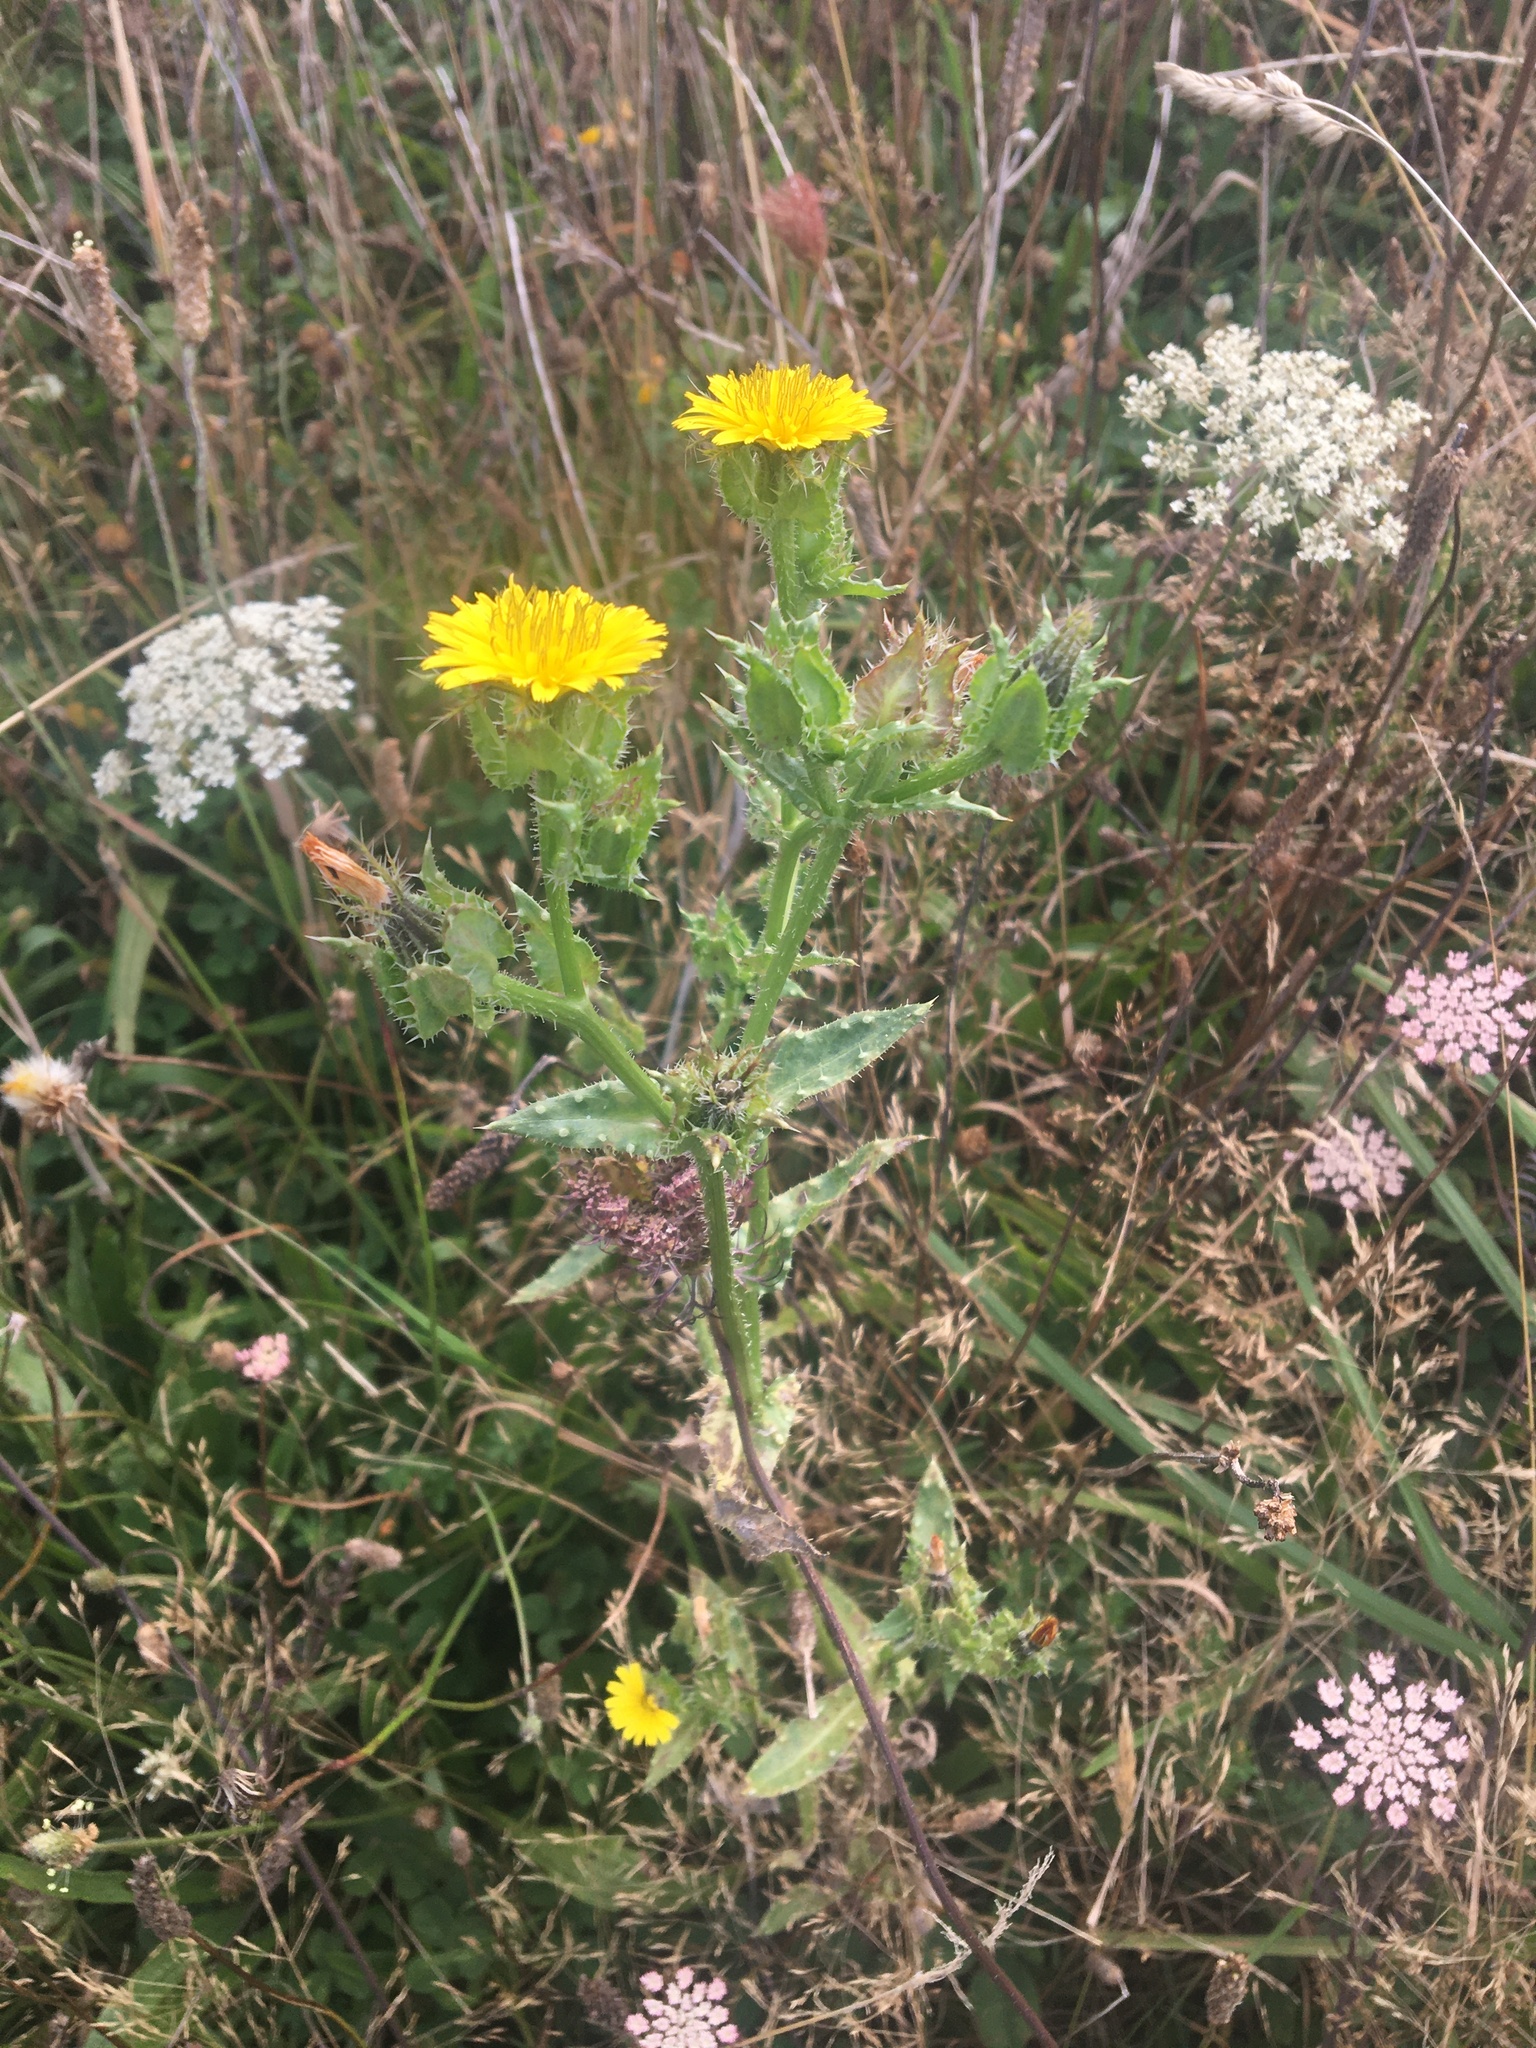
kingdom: Plantae
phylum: Tracheophyta
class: Magnoliopsida
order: Asterales
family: Asteraceae
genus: Helminthotheca
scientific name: Helminthotheca echioides
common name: Ox-tongue
